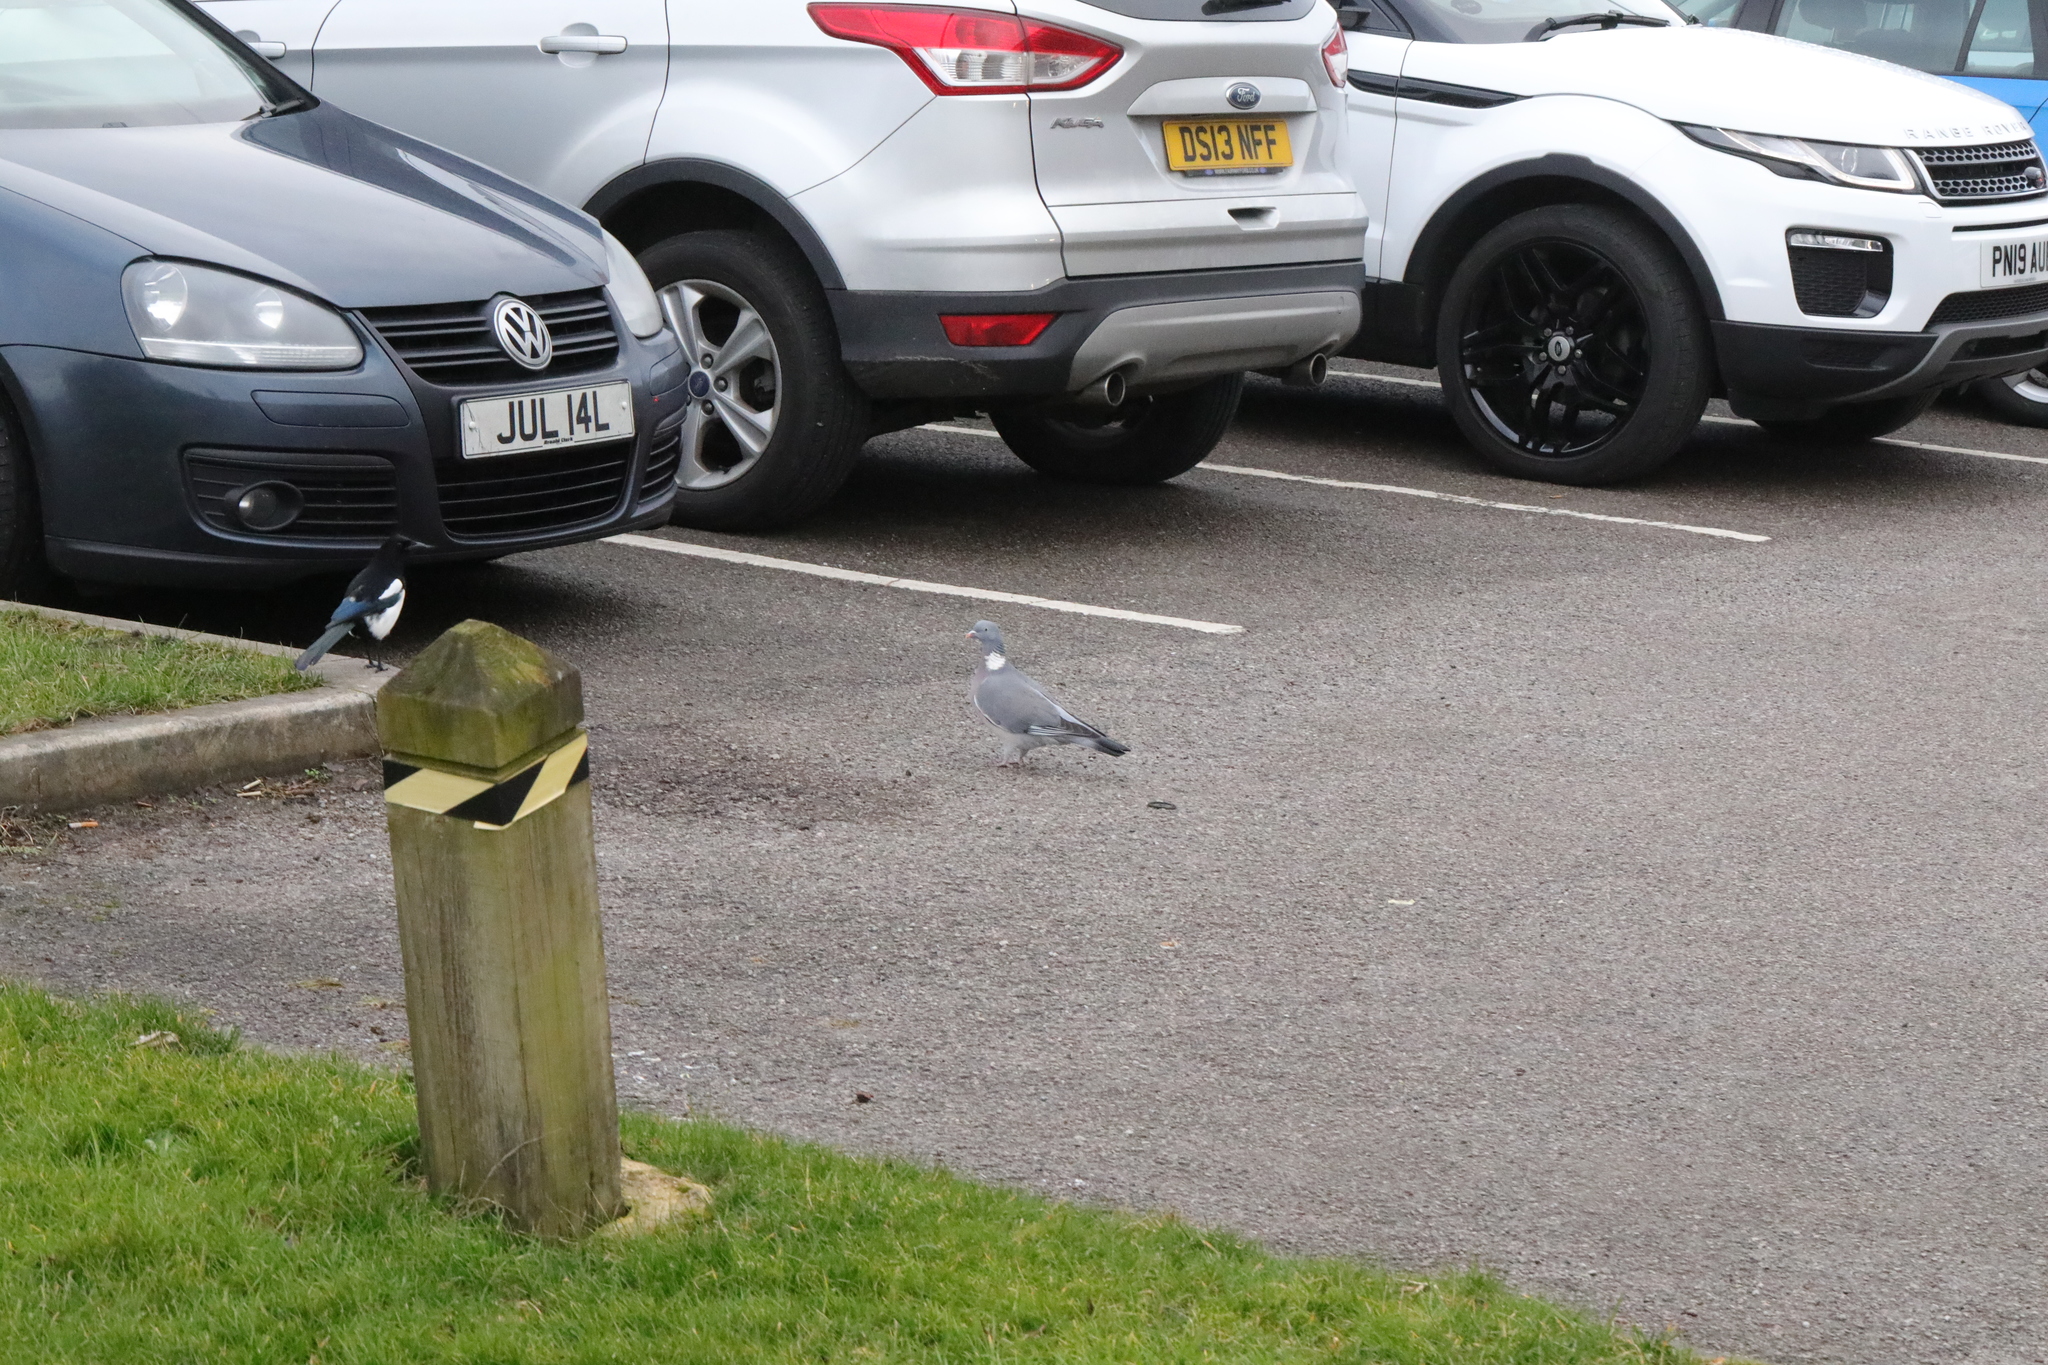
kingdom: Animalia
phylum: Chordata
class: Aves
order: Columbiformes
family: Columbidae
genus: Columba
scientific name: Columba palumbus
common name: Common wood pigeon
